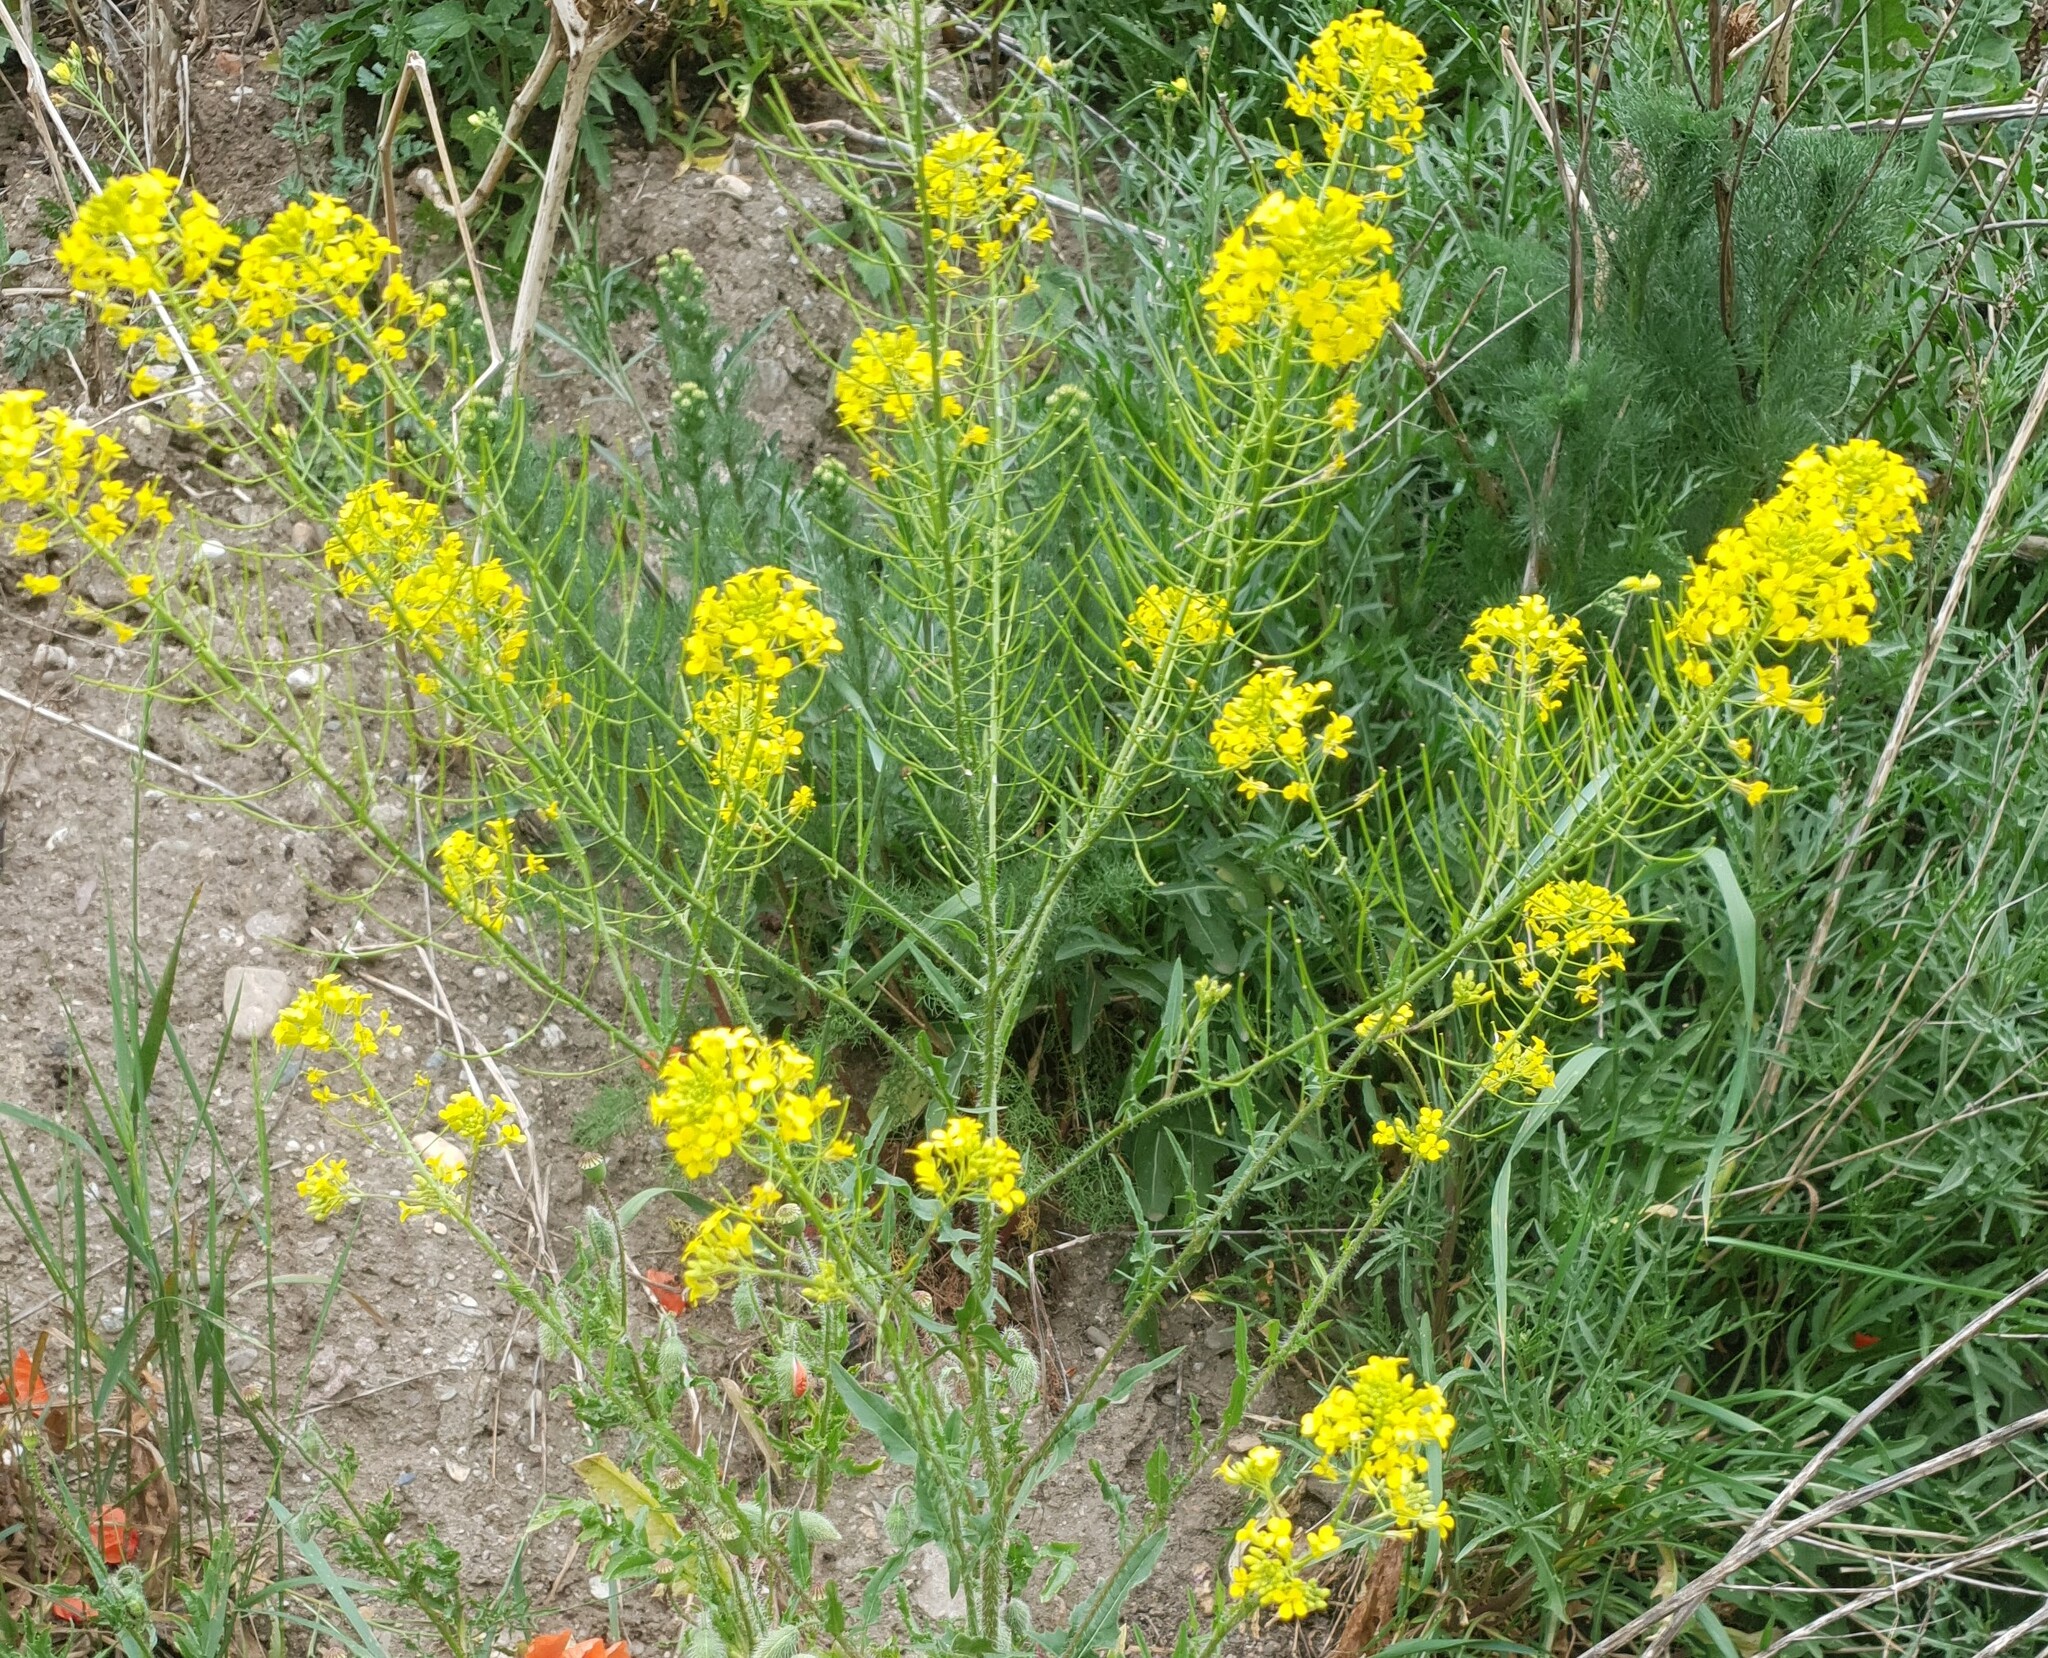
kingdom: Plantae
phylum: Tracheophyta
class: Magnoliopsida
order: Brassicales
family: Brassicaceae
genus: Sisymbrium
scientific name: Sisymbrium loeselii
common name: False london-rocket
